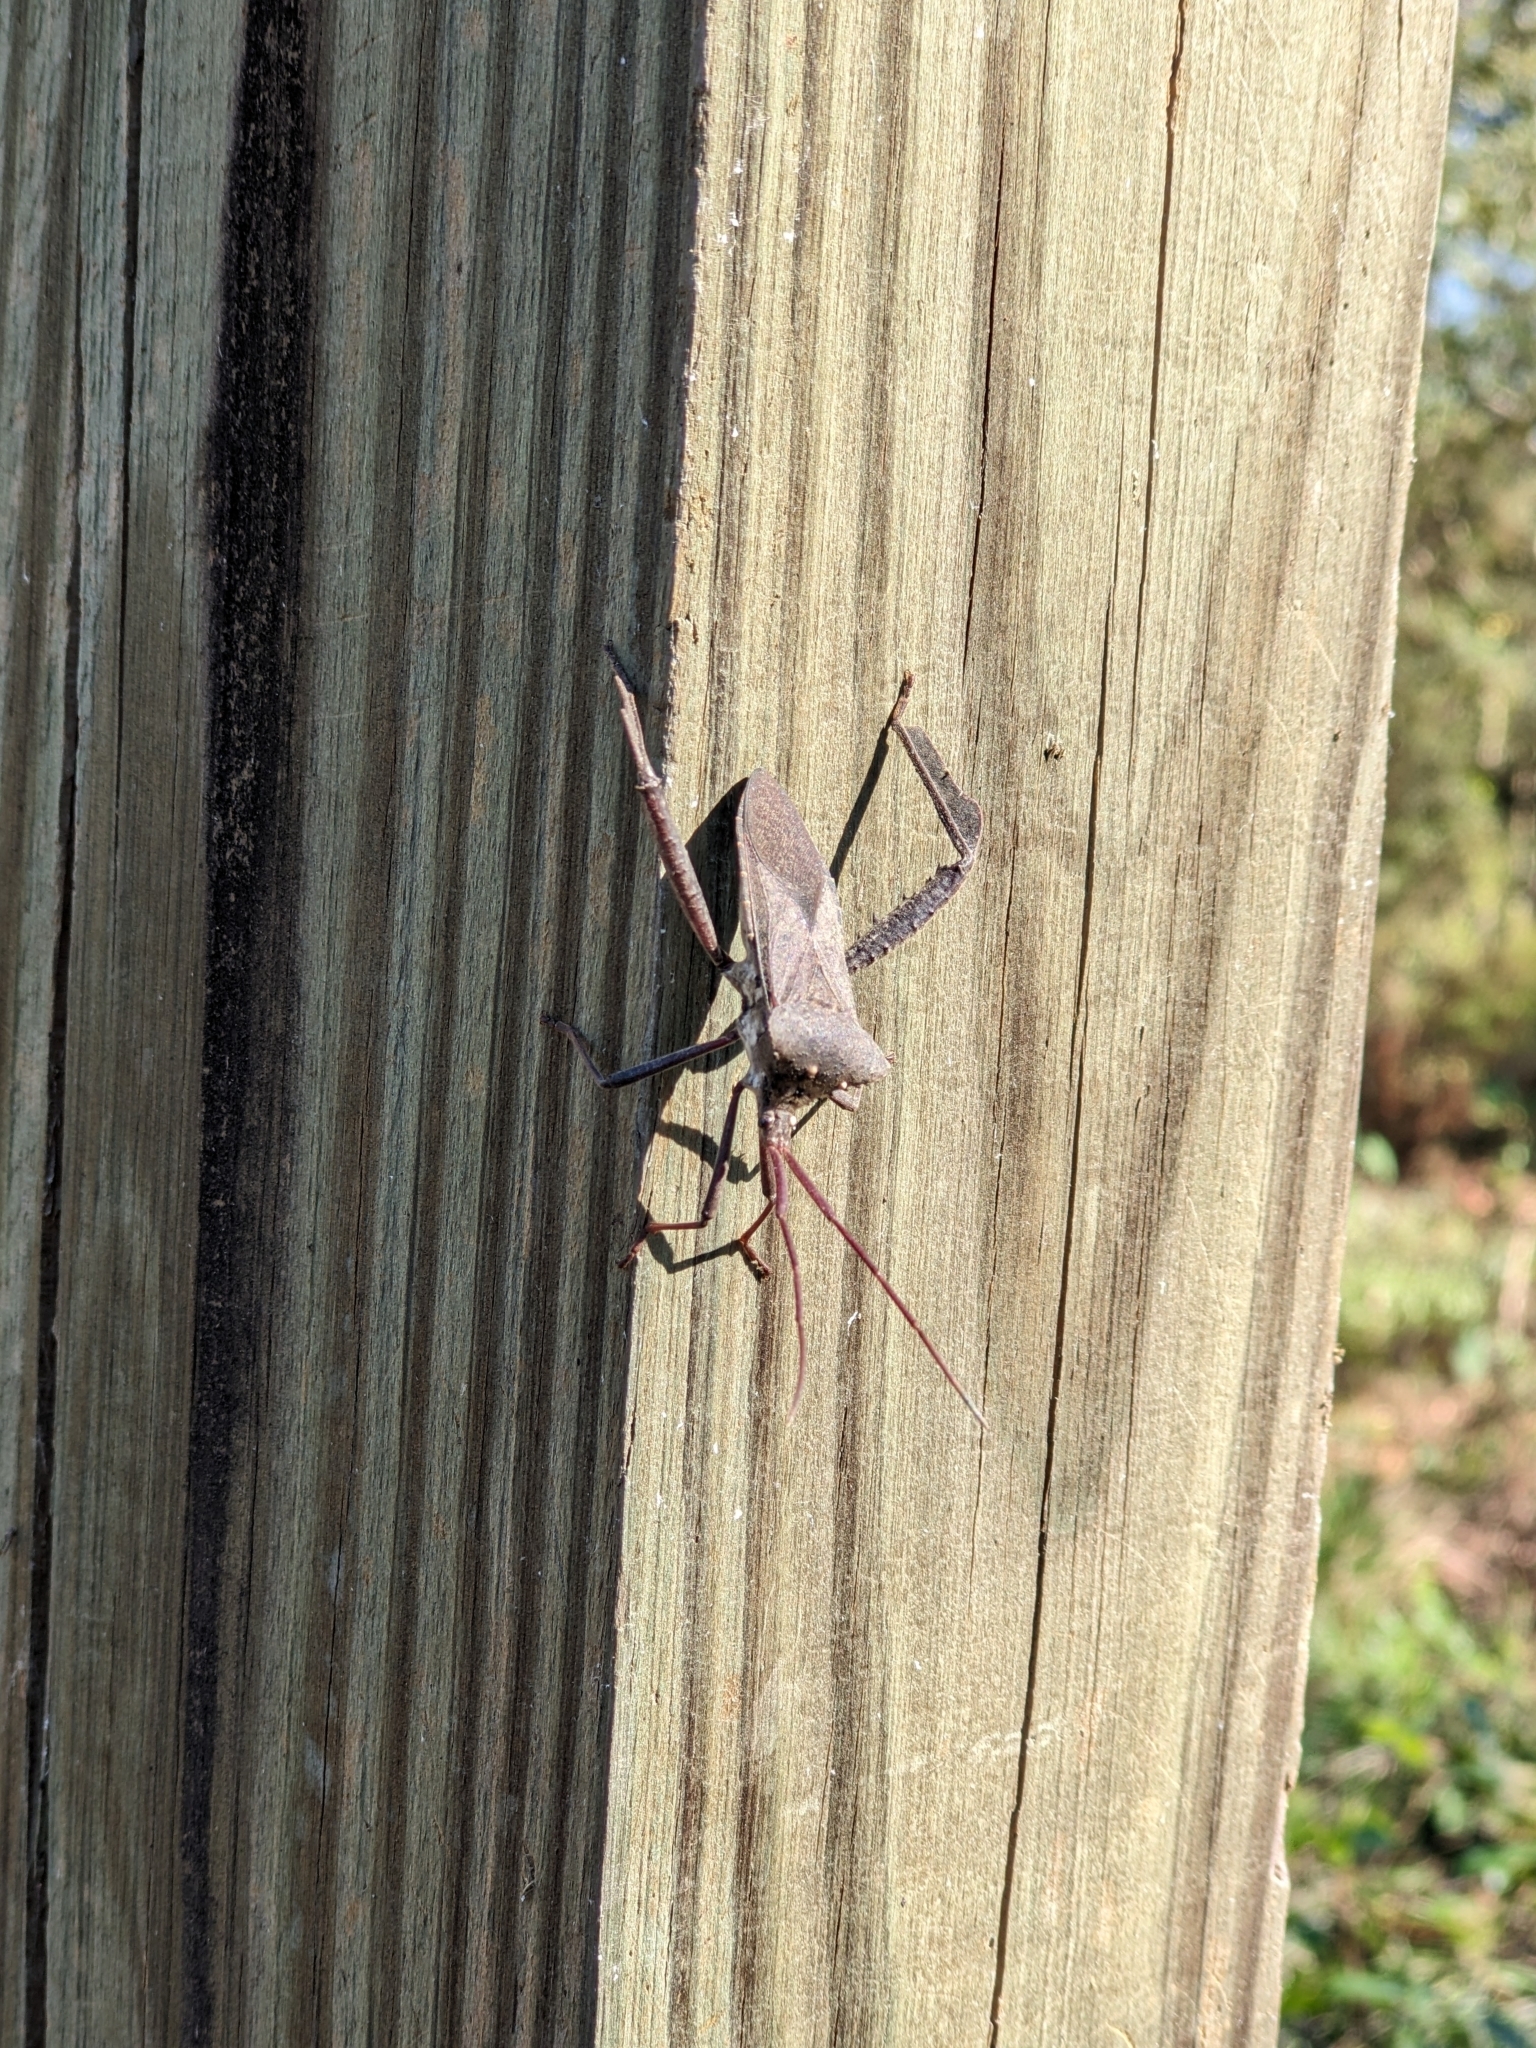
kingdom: Animalia
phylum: Arthropoda
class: Insecta
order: Hemiptera
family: Coreidae
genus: Acanthocephala
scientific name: Acanthocephala declivis
